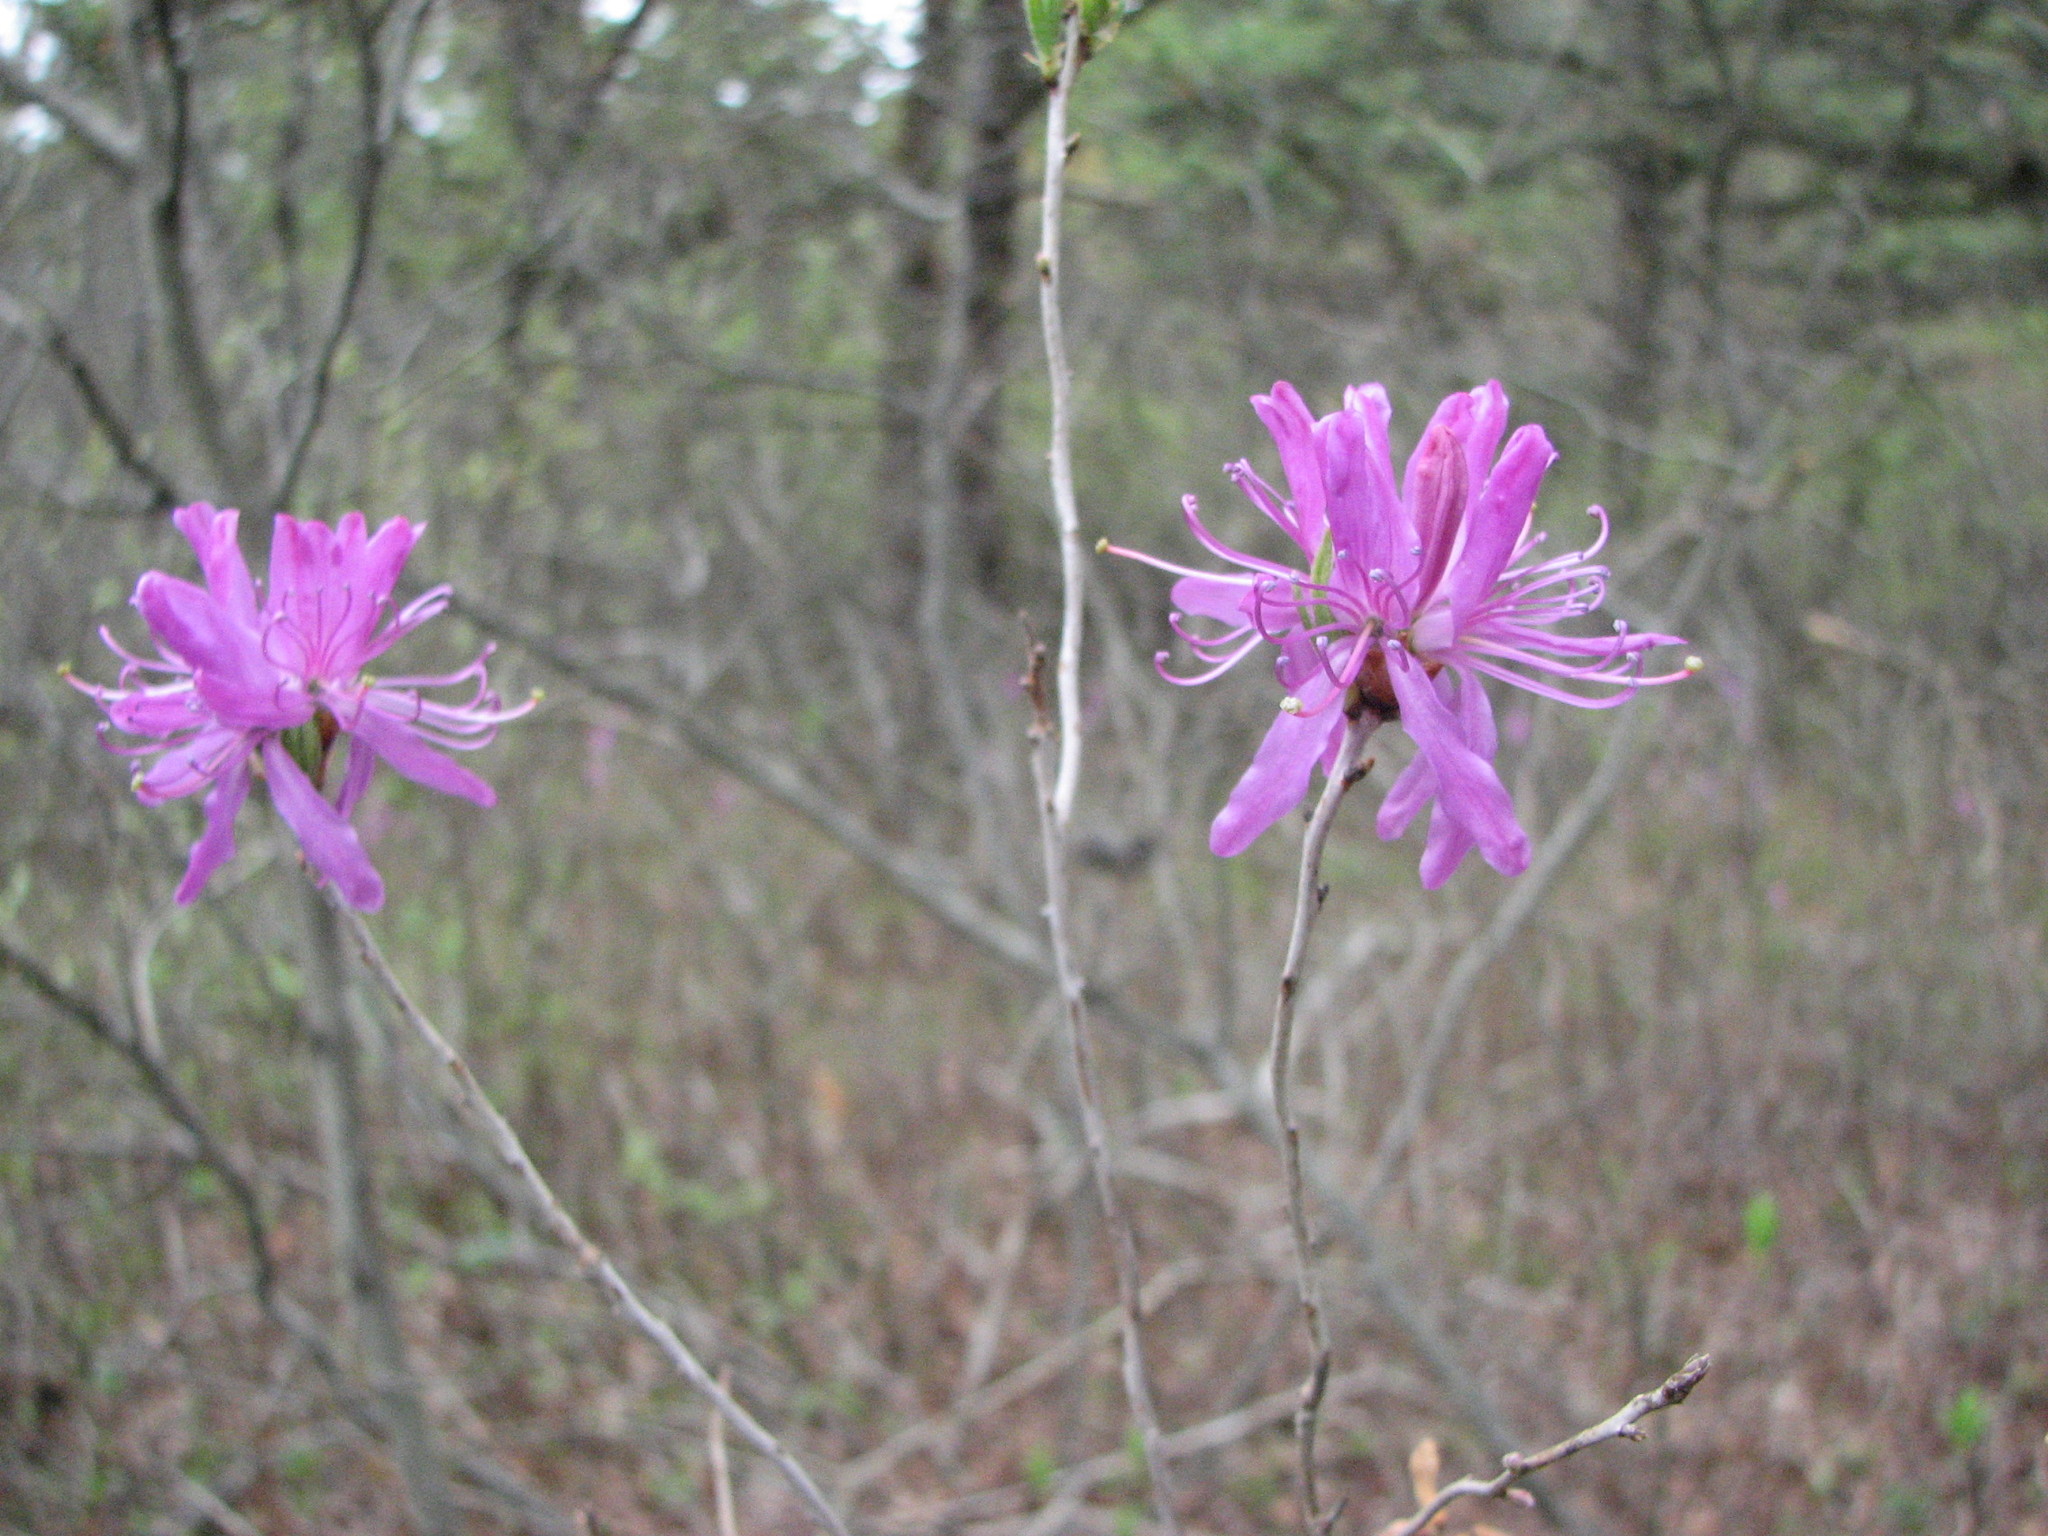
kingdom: Plantae
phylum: Tracheophyta
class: Magnoliopsida
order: Ericales
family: Ericaceae
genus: Rhododendron
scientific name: Rhododendron canadense
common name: Rhodora
